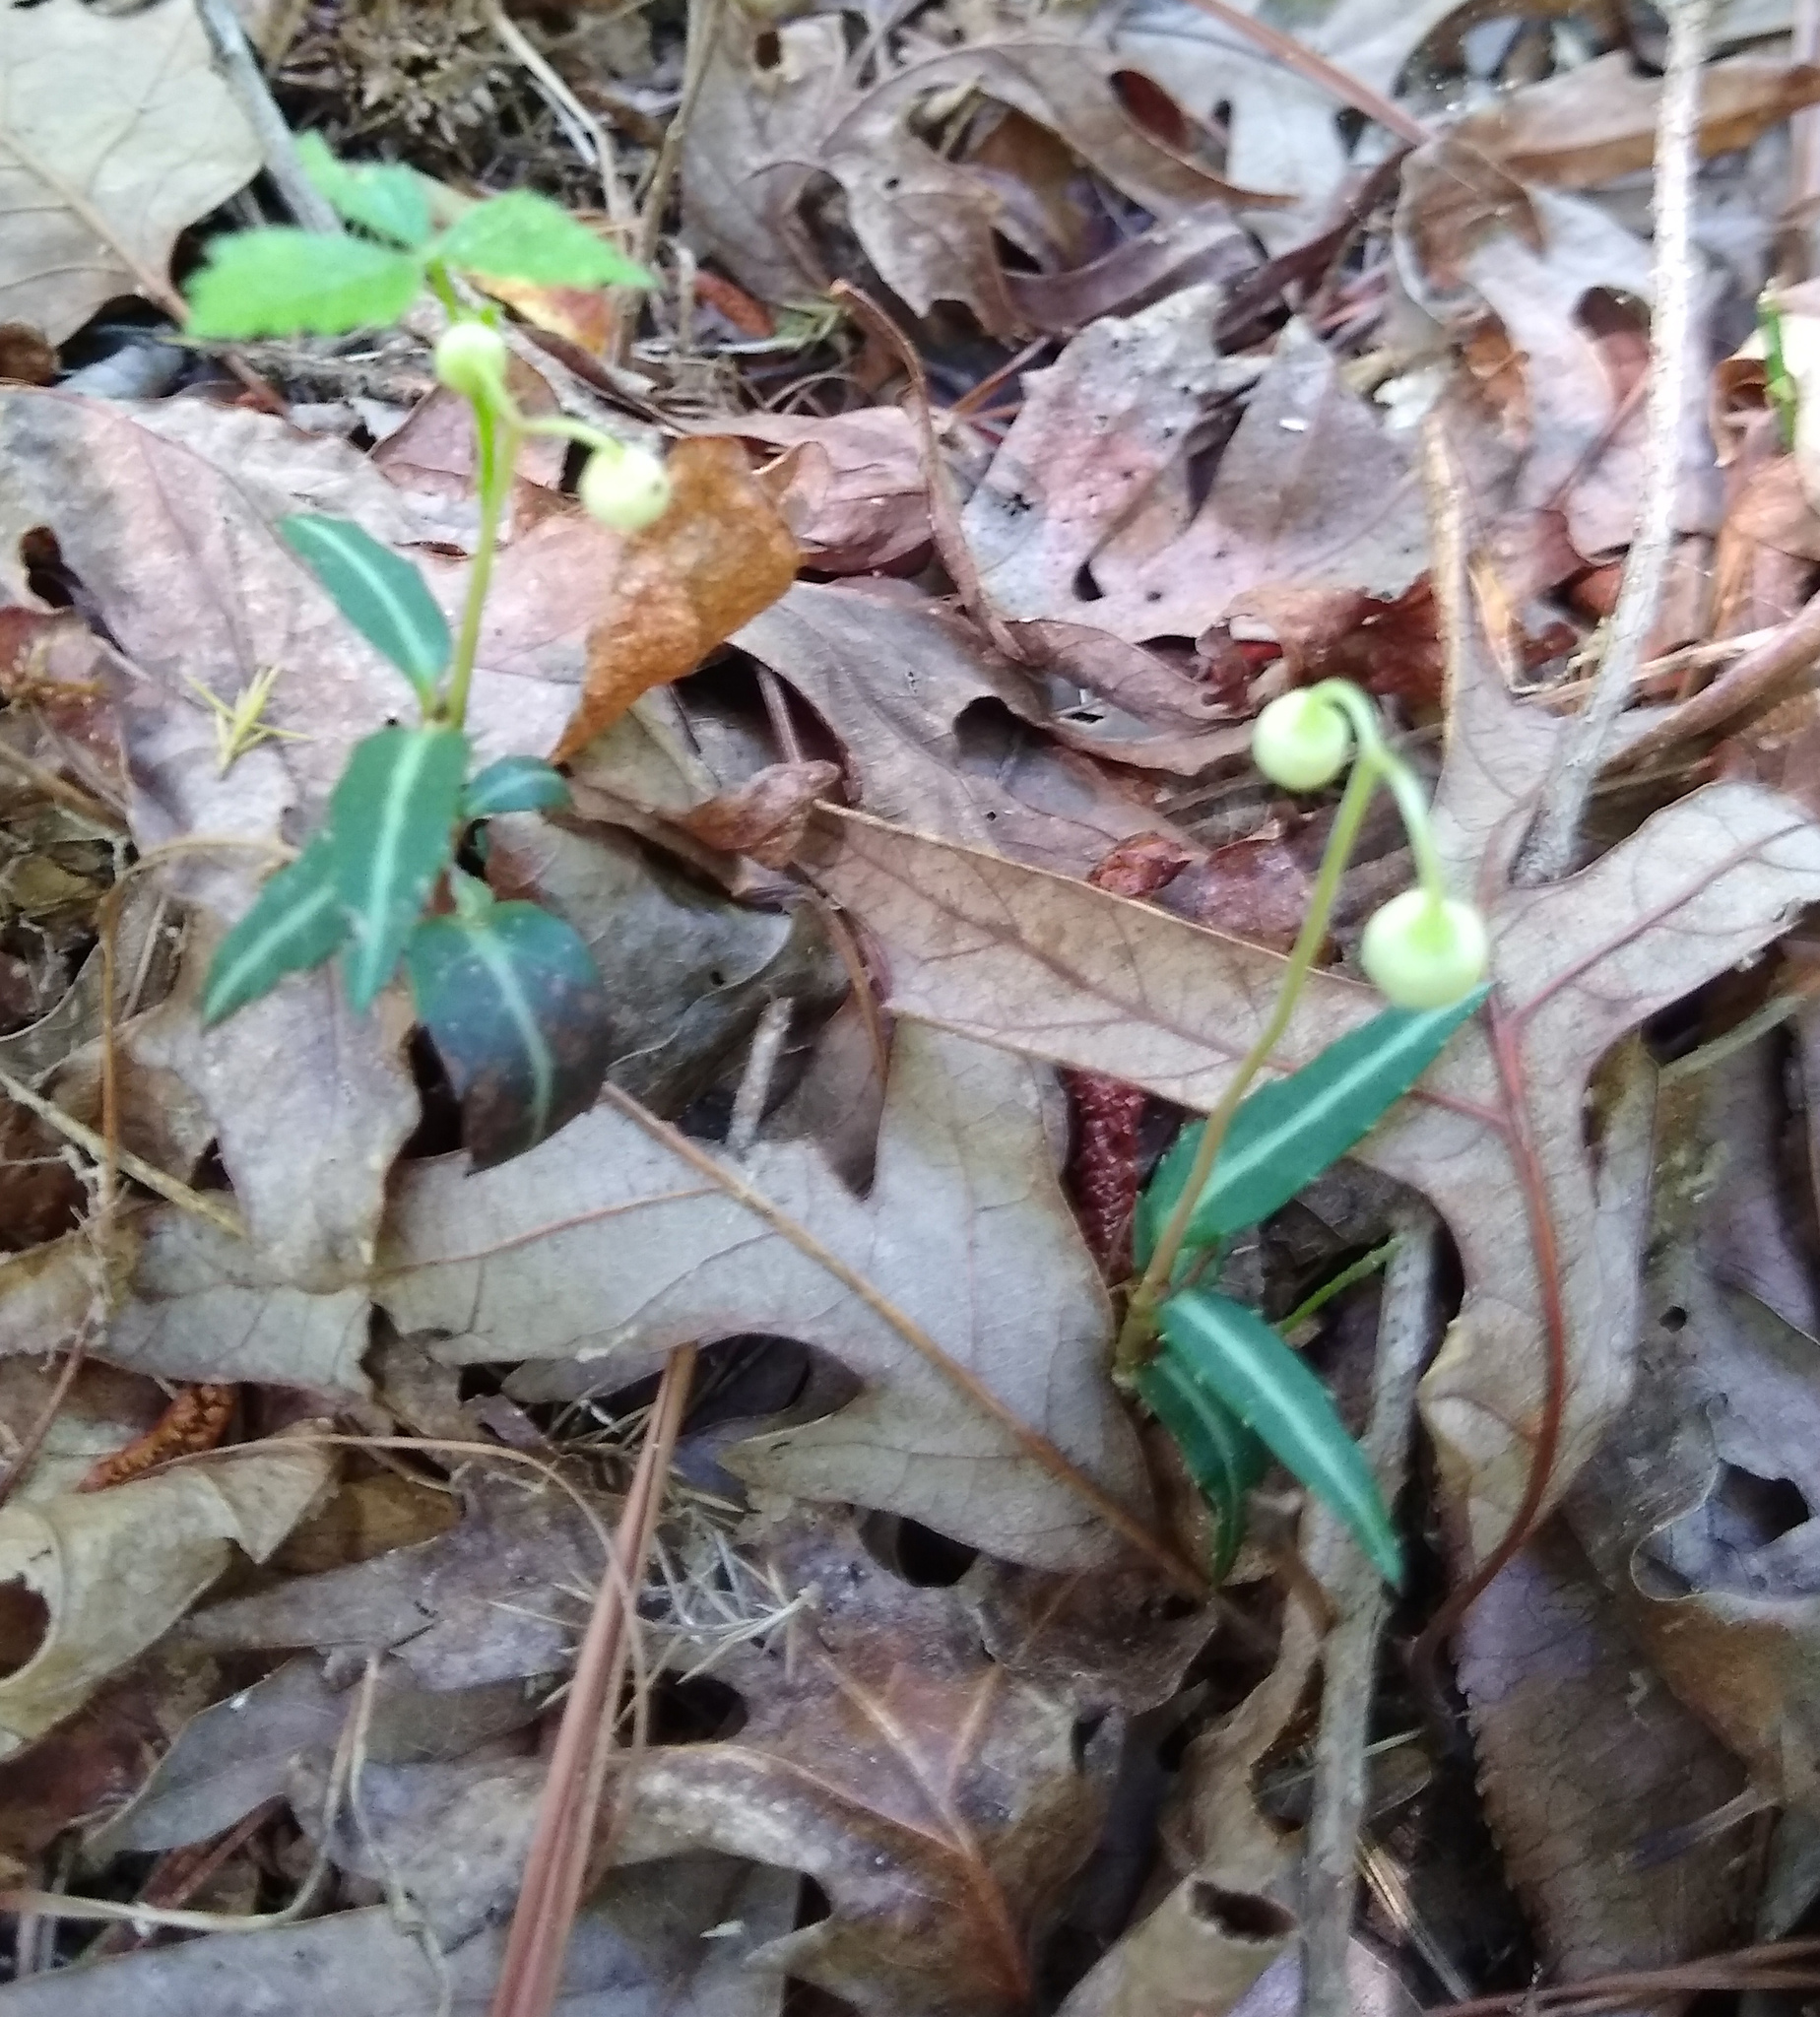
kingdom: Plantae
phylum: Tracheophyta
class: Magnoliopsida
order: Ericales
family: Ericaceae
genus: Chimaphila
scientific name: Chimaphila maculata
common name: Spotted pipsissewa
